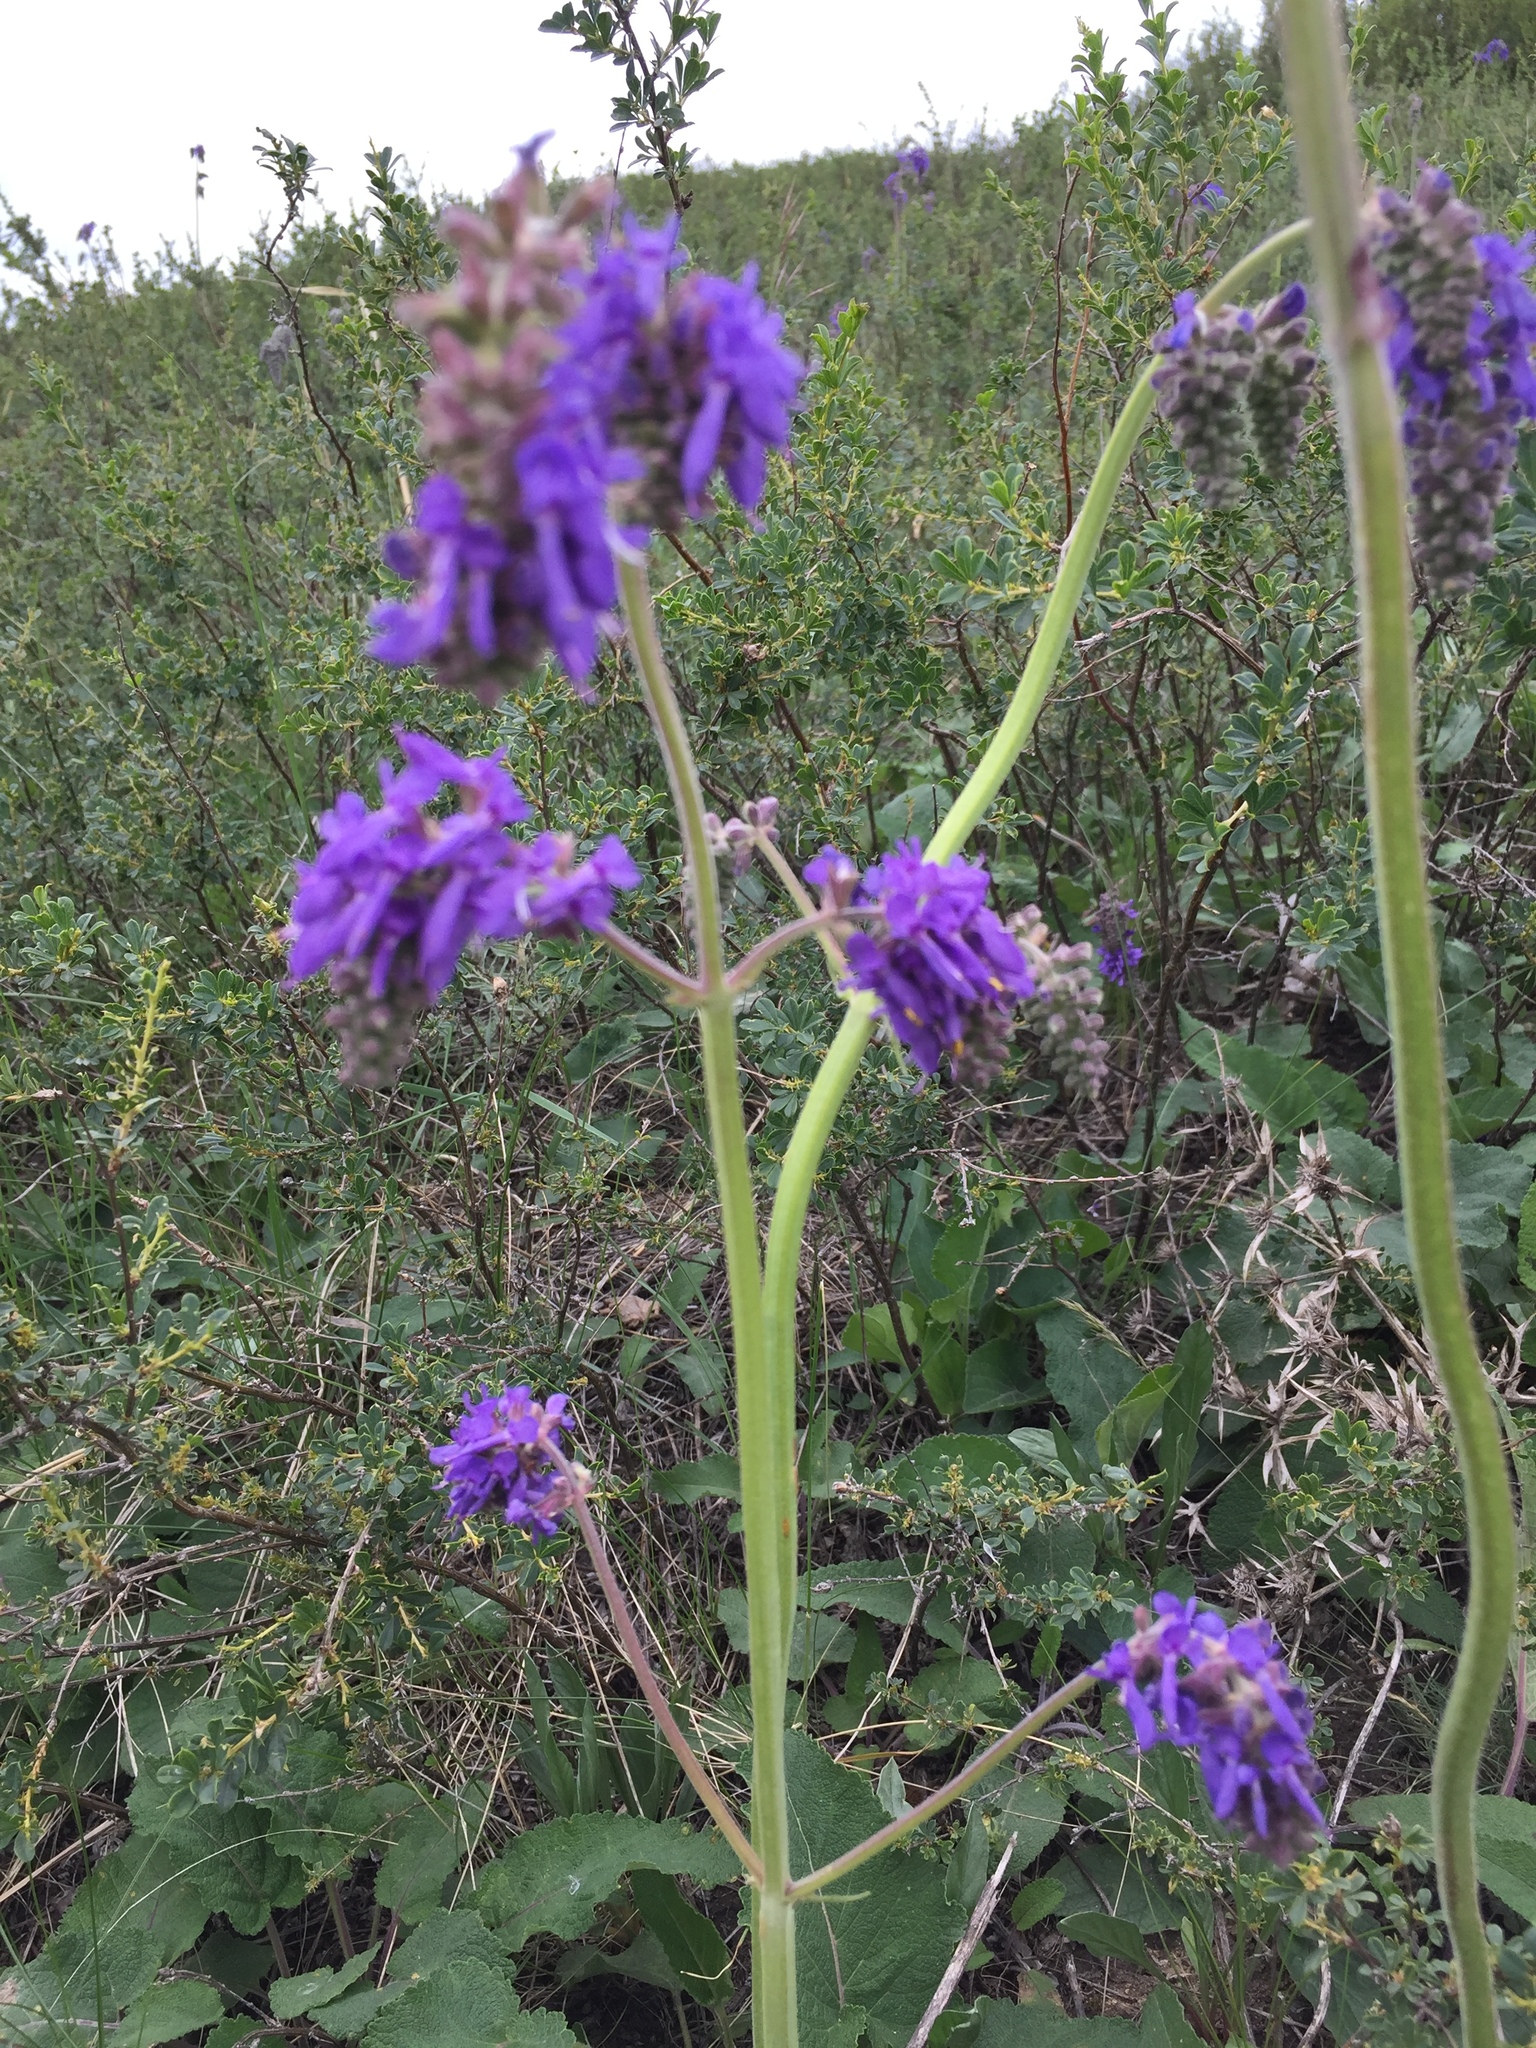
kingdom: Plantae
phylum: Tracheophyta
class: Magnoliopsida
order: Lamiales
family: Lamiaceae
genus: Salvia
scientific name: Salvia nutans
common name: Nodding sage
